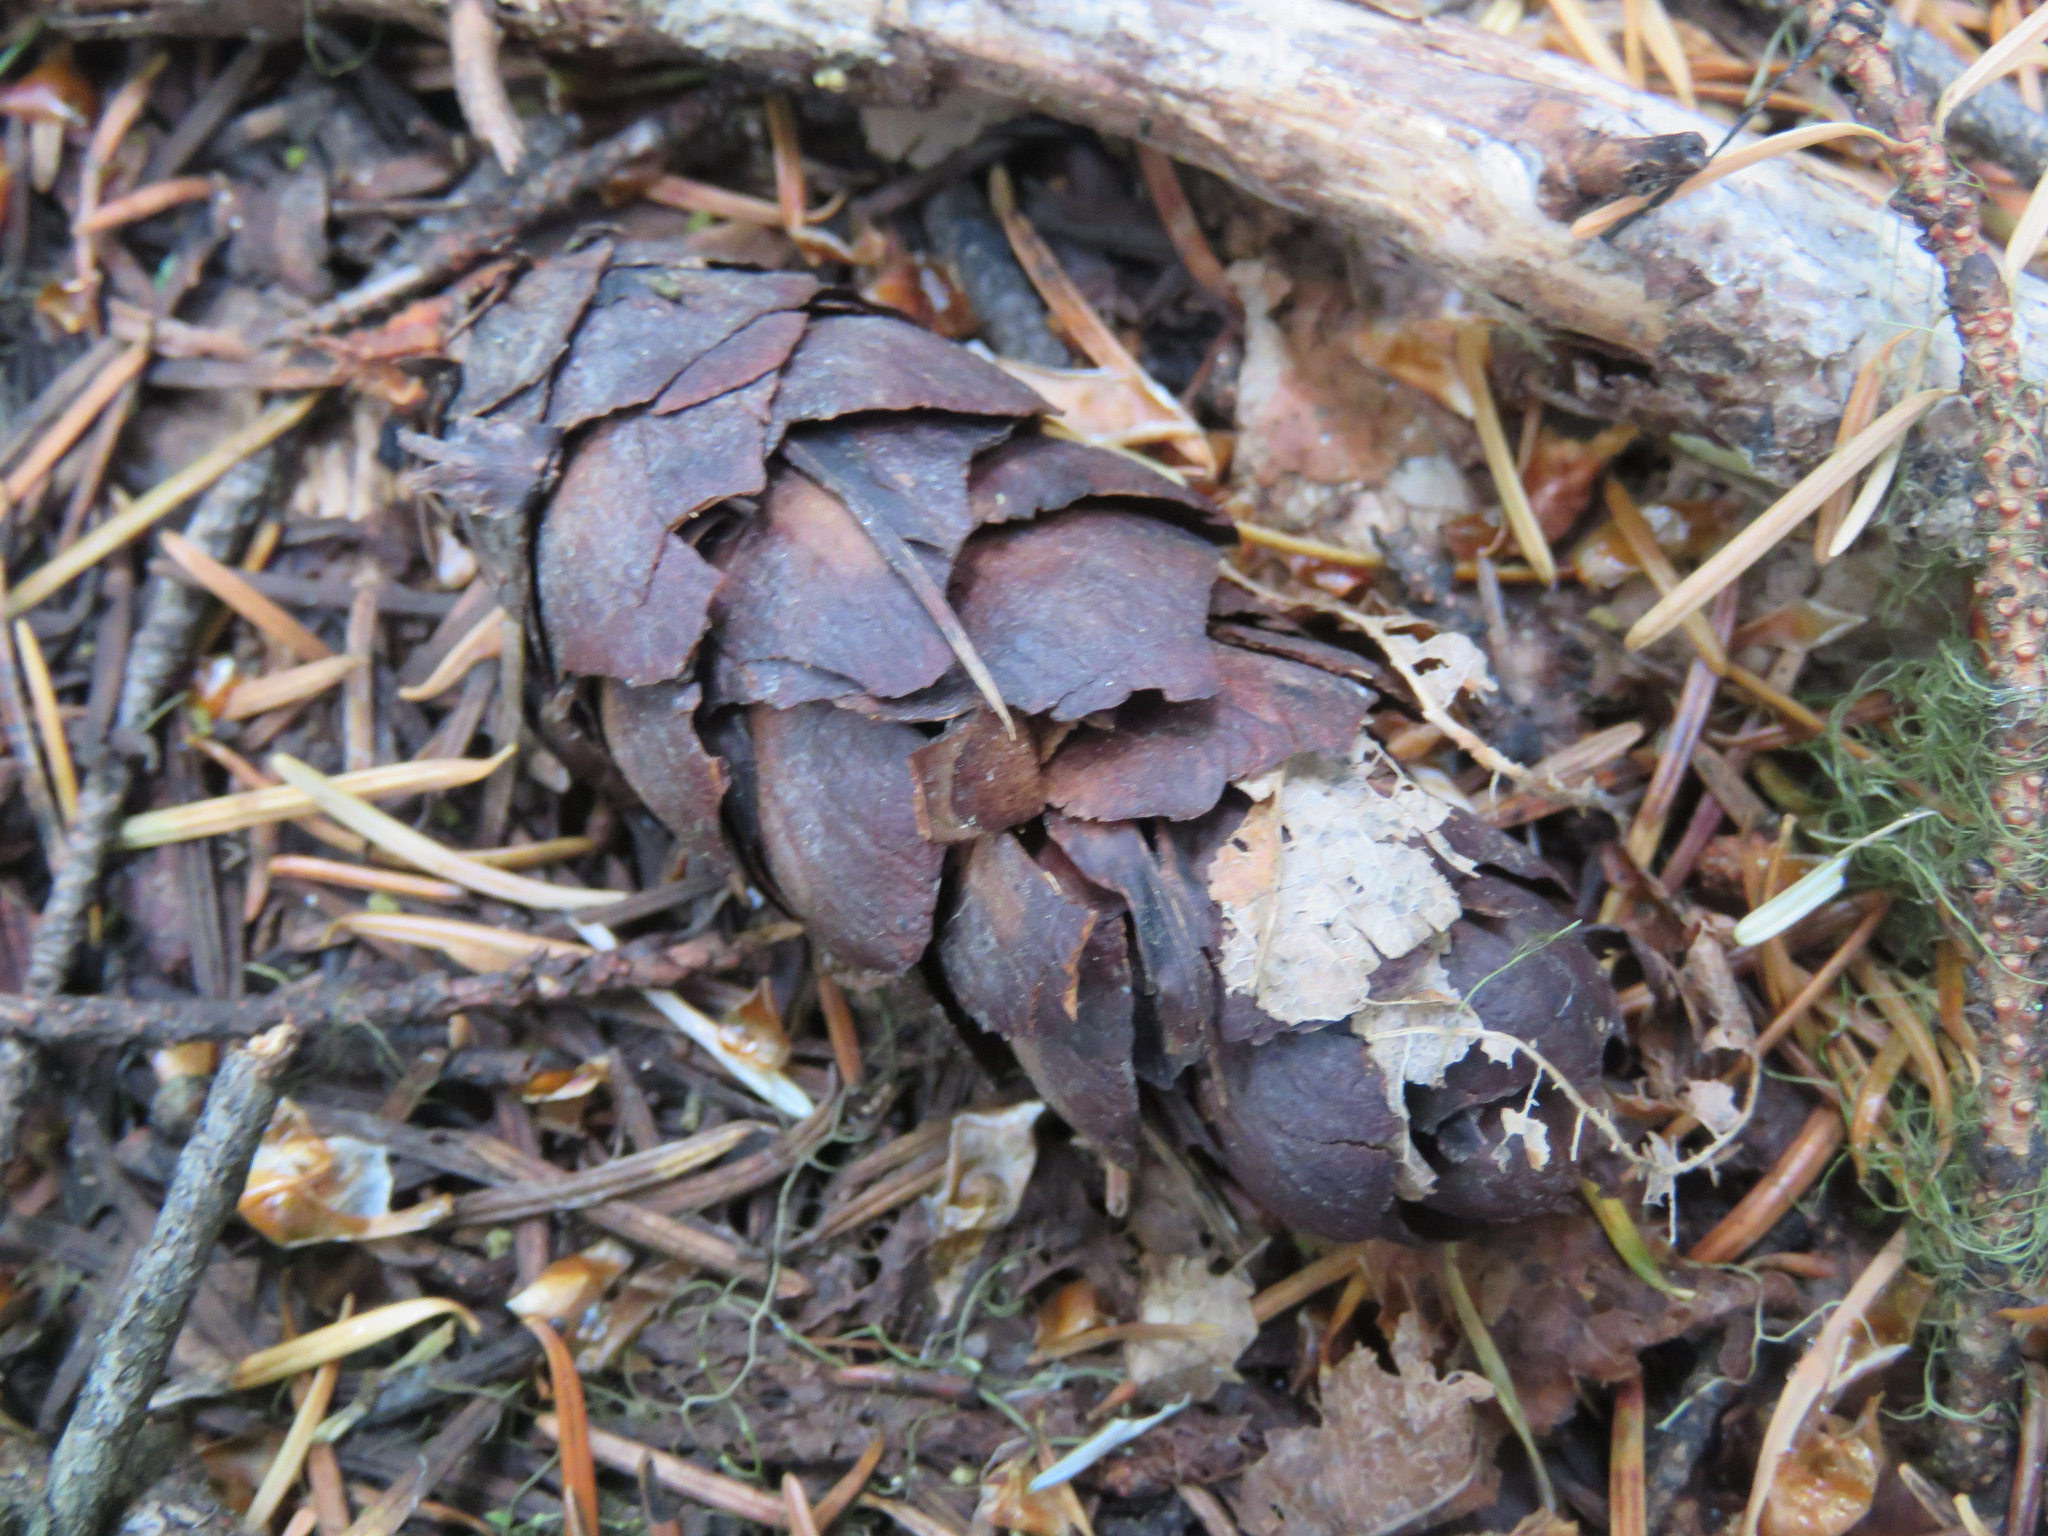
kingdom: Plantae
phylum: Tracheophyta
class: Pinopsida
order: Pinales
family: Pinaceae
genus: Pseudotsuga
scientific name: Pseudotsuga menziesii
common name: Douglas fir
